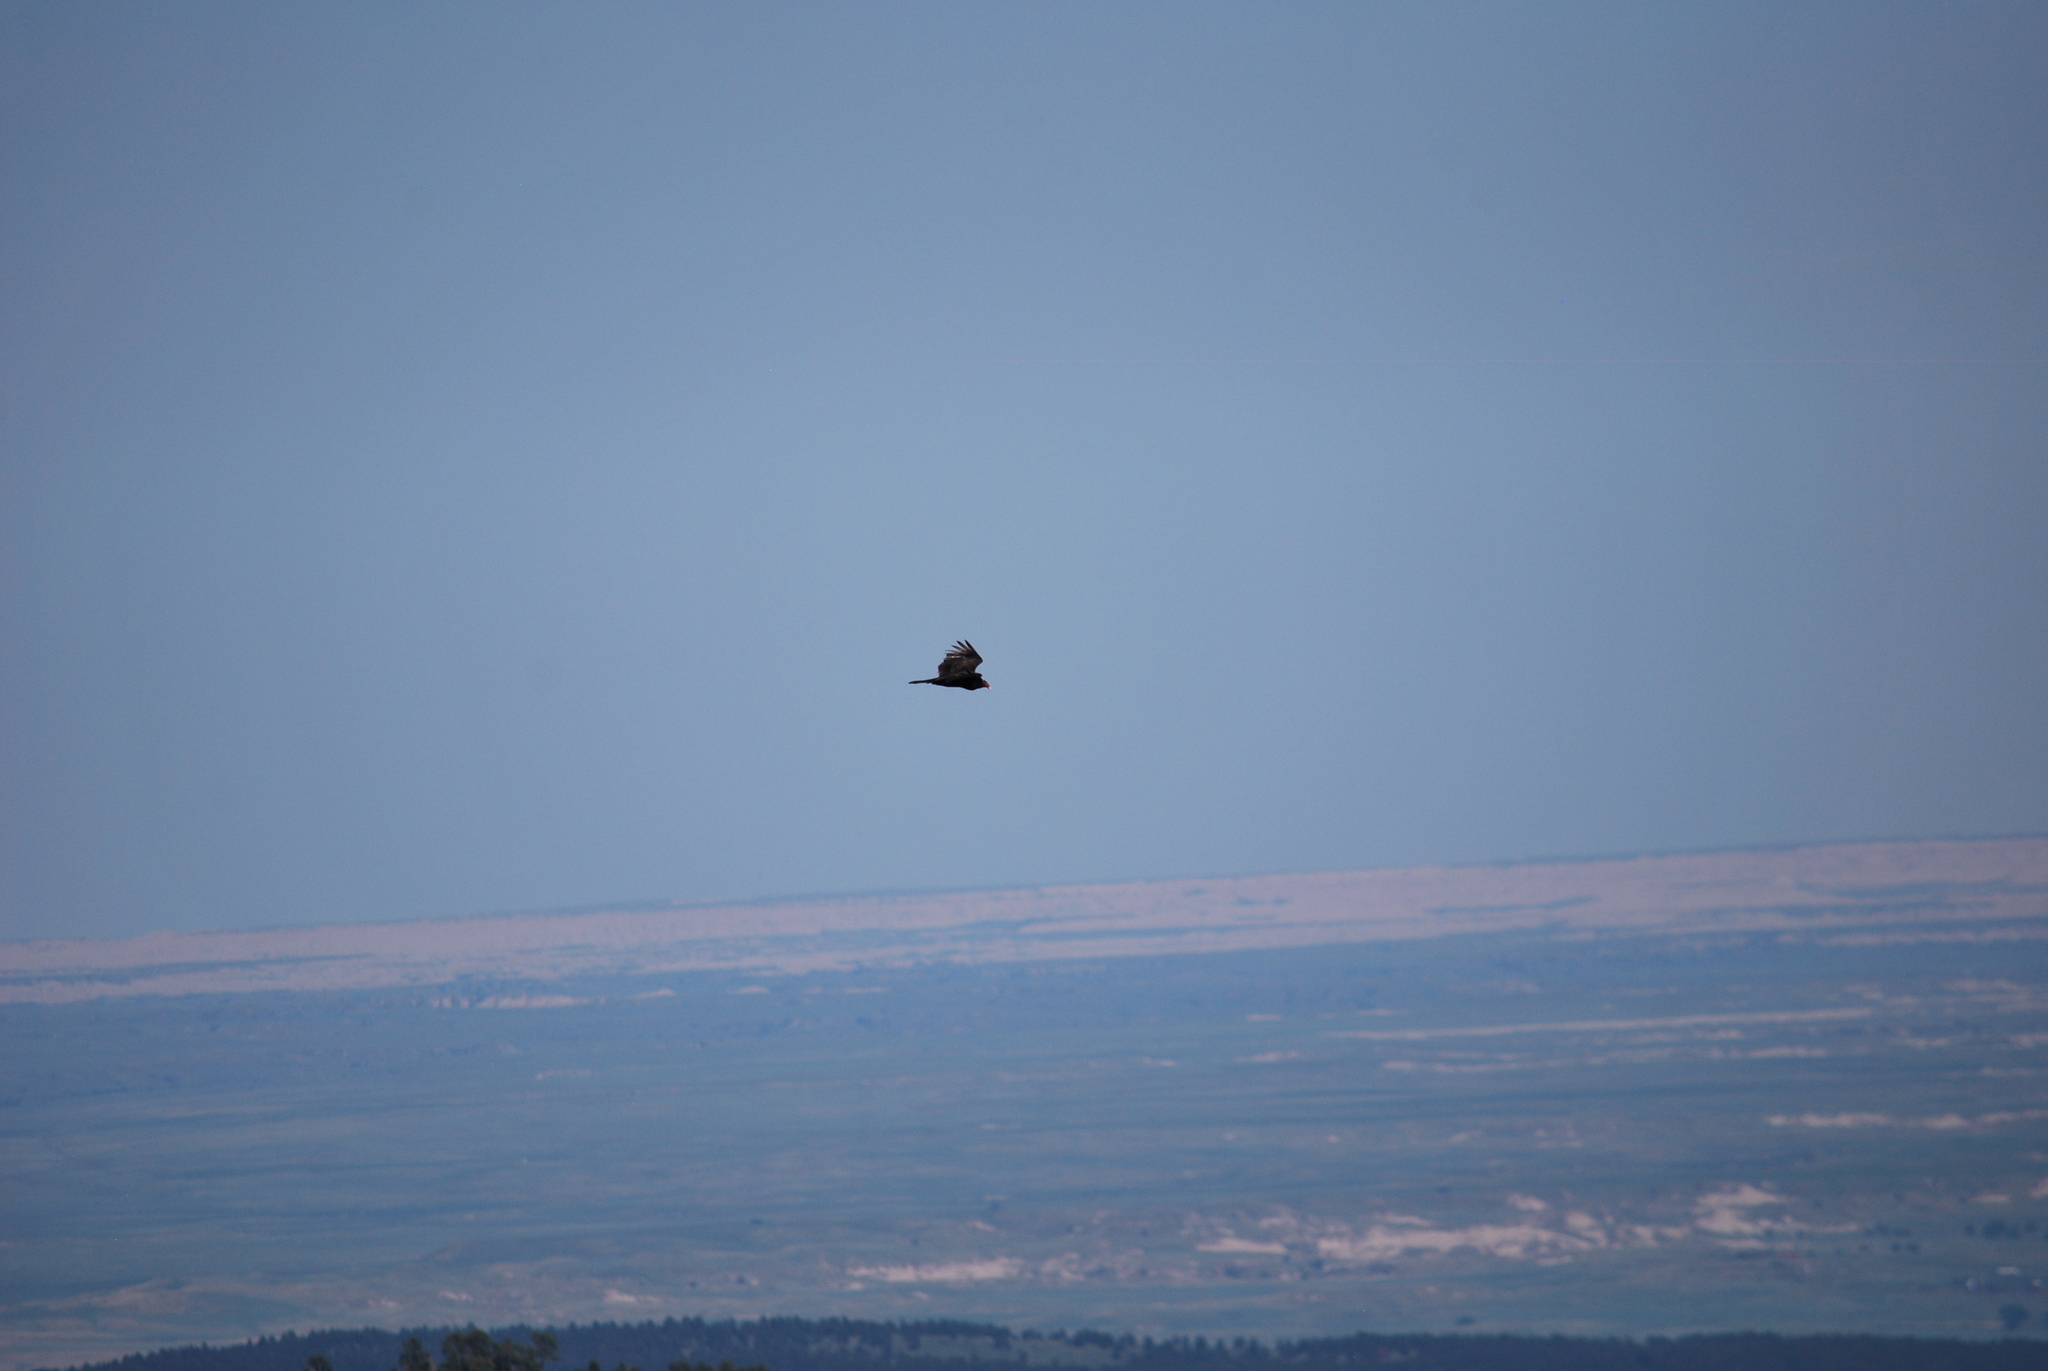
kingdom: Animalia
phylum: Chordata
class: Aves
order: Accipitriformes
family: Cathartidae
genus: Cathartes
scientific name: Cathartes aura
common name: Turkey vulture
